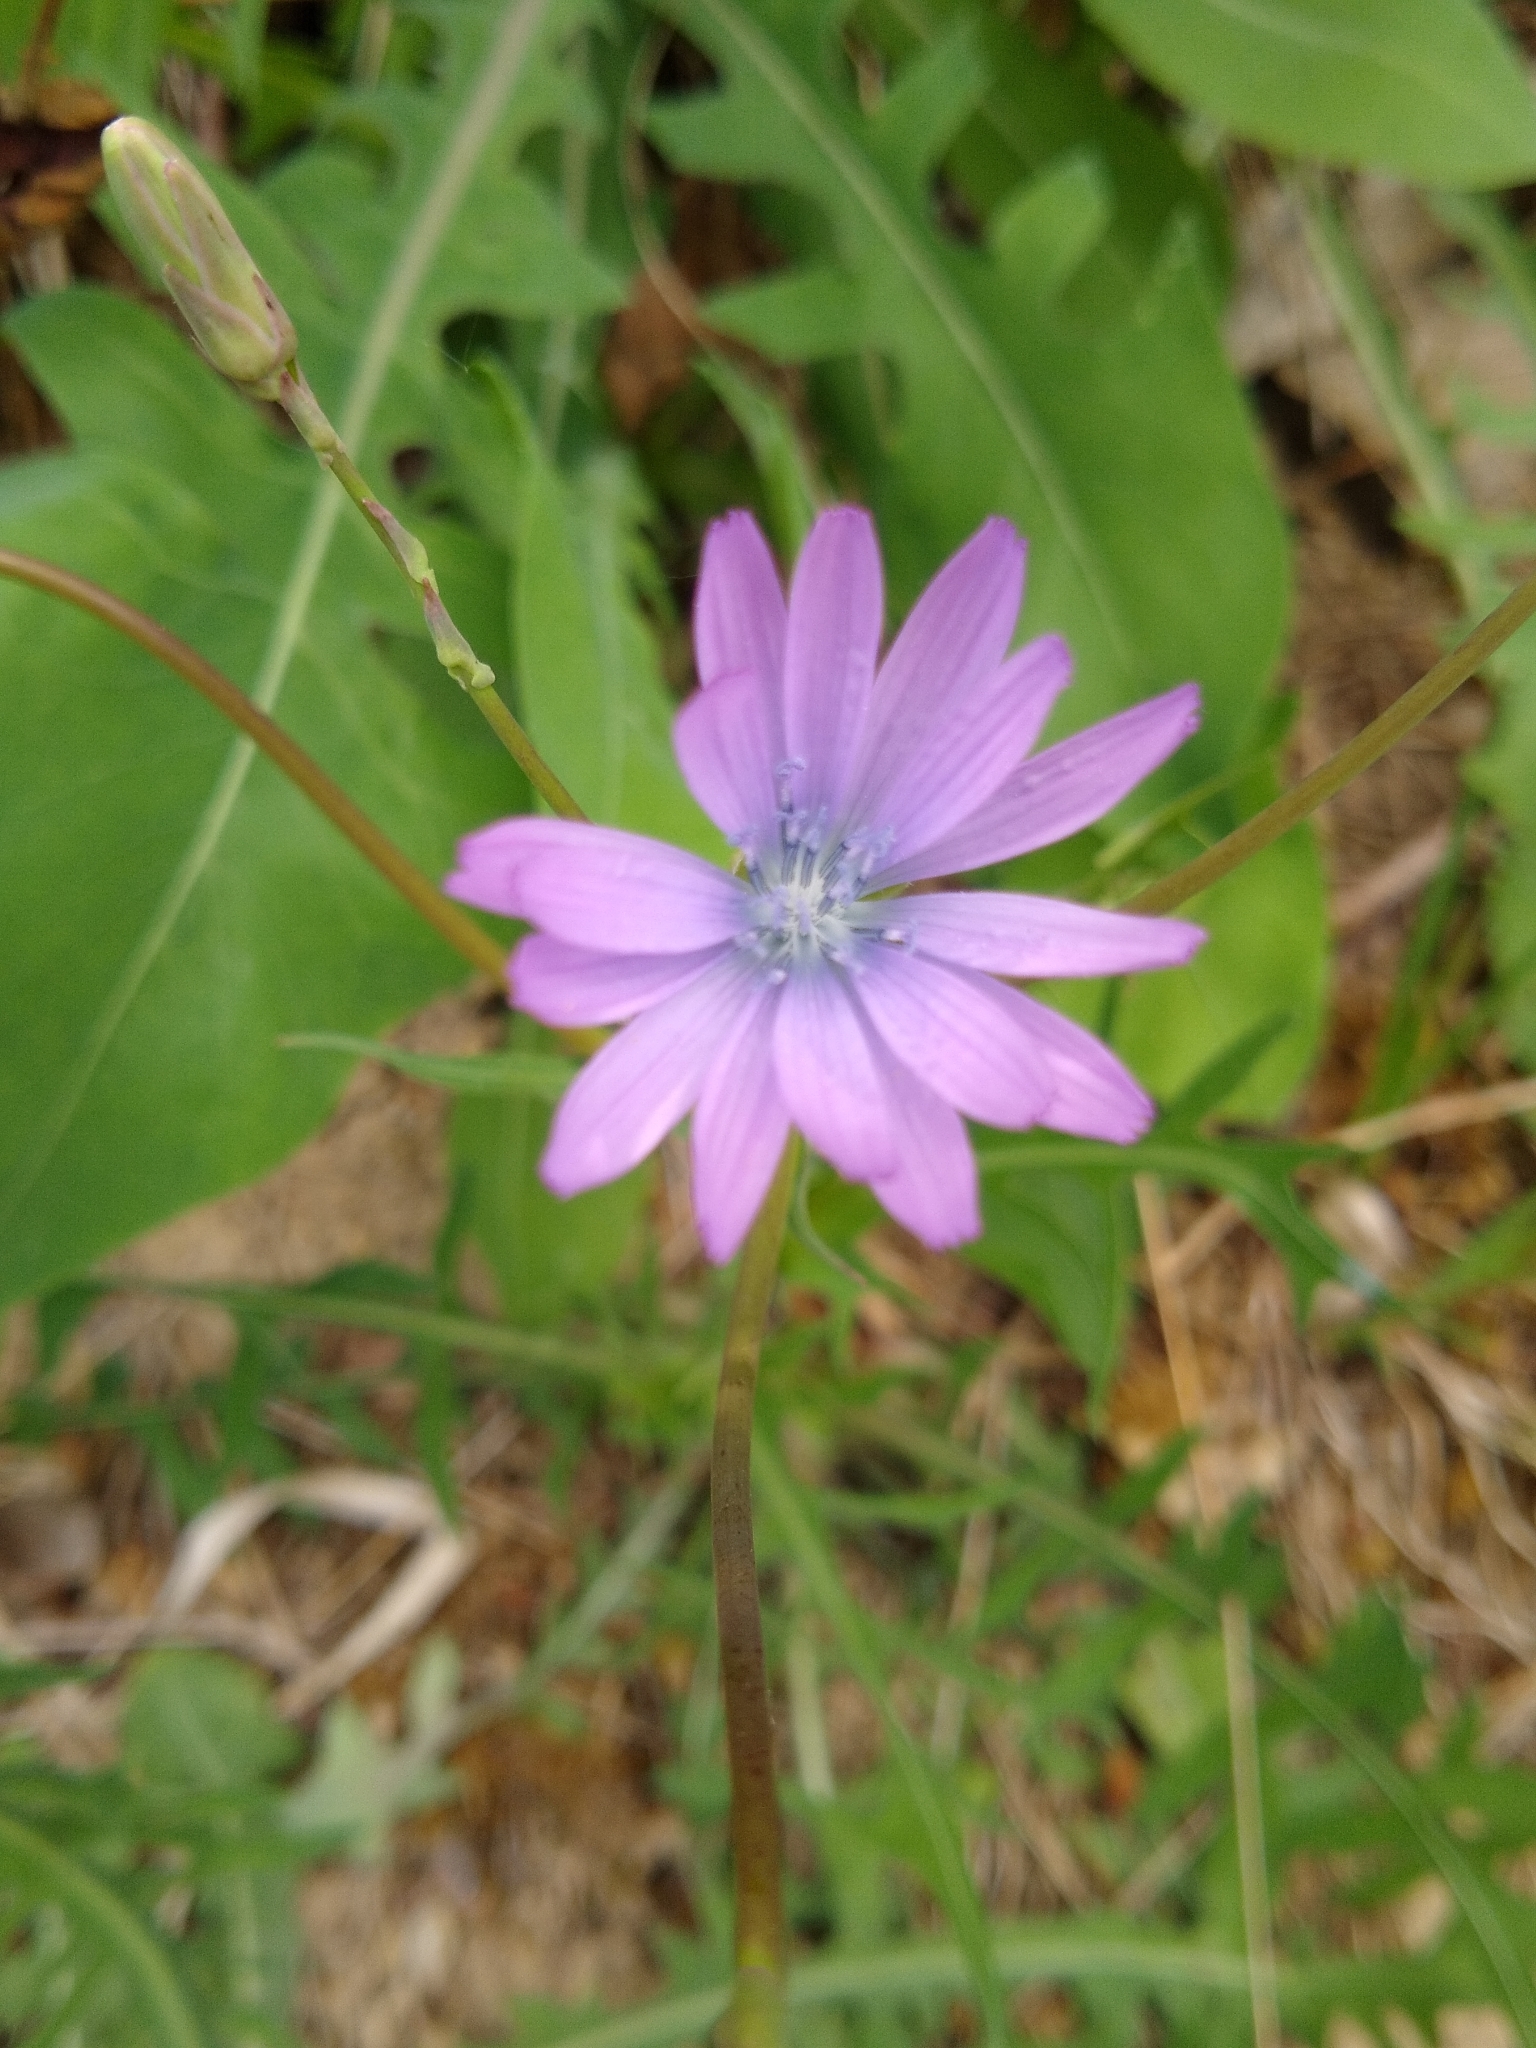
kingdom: Plantae
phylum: Tracheophyta
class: Magnoliopsida
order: Asterales
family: Asteraceae
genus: Lactuca
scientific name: Lactuca perennis
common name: Mountain lettuce
